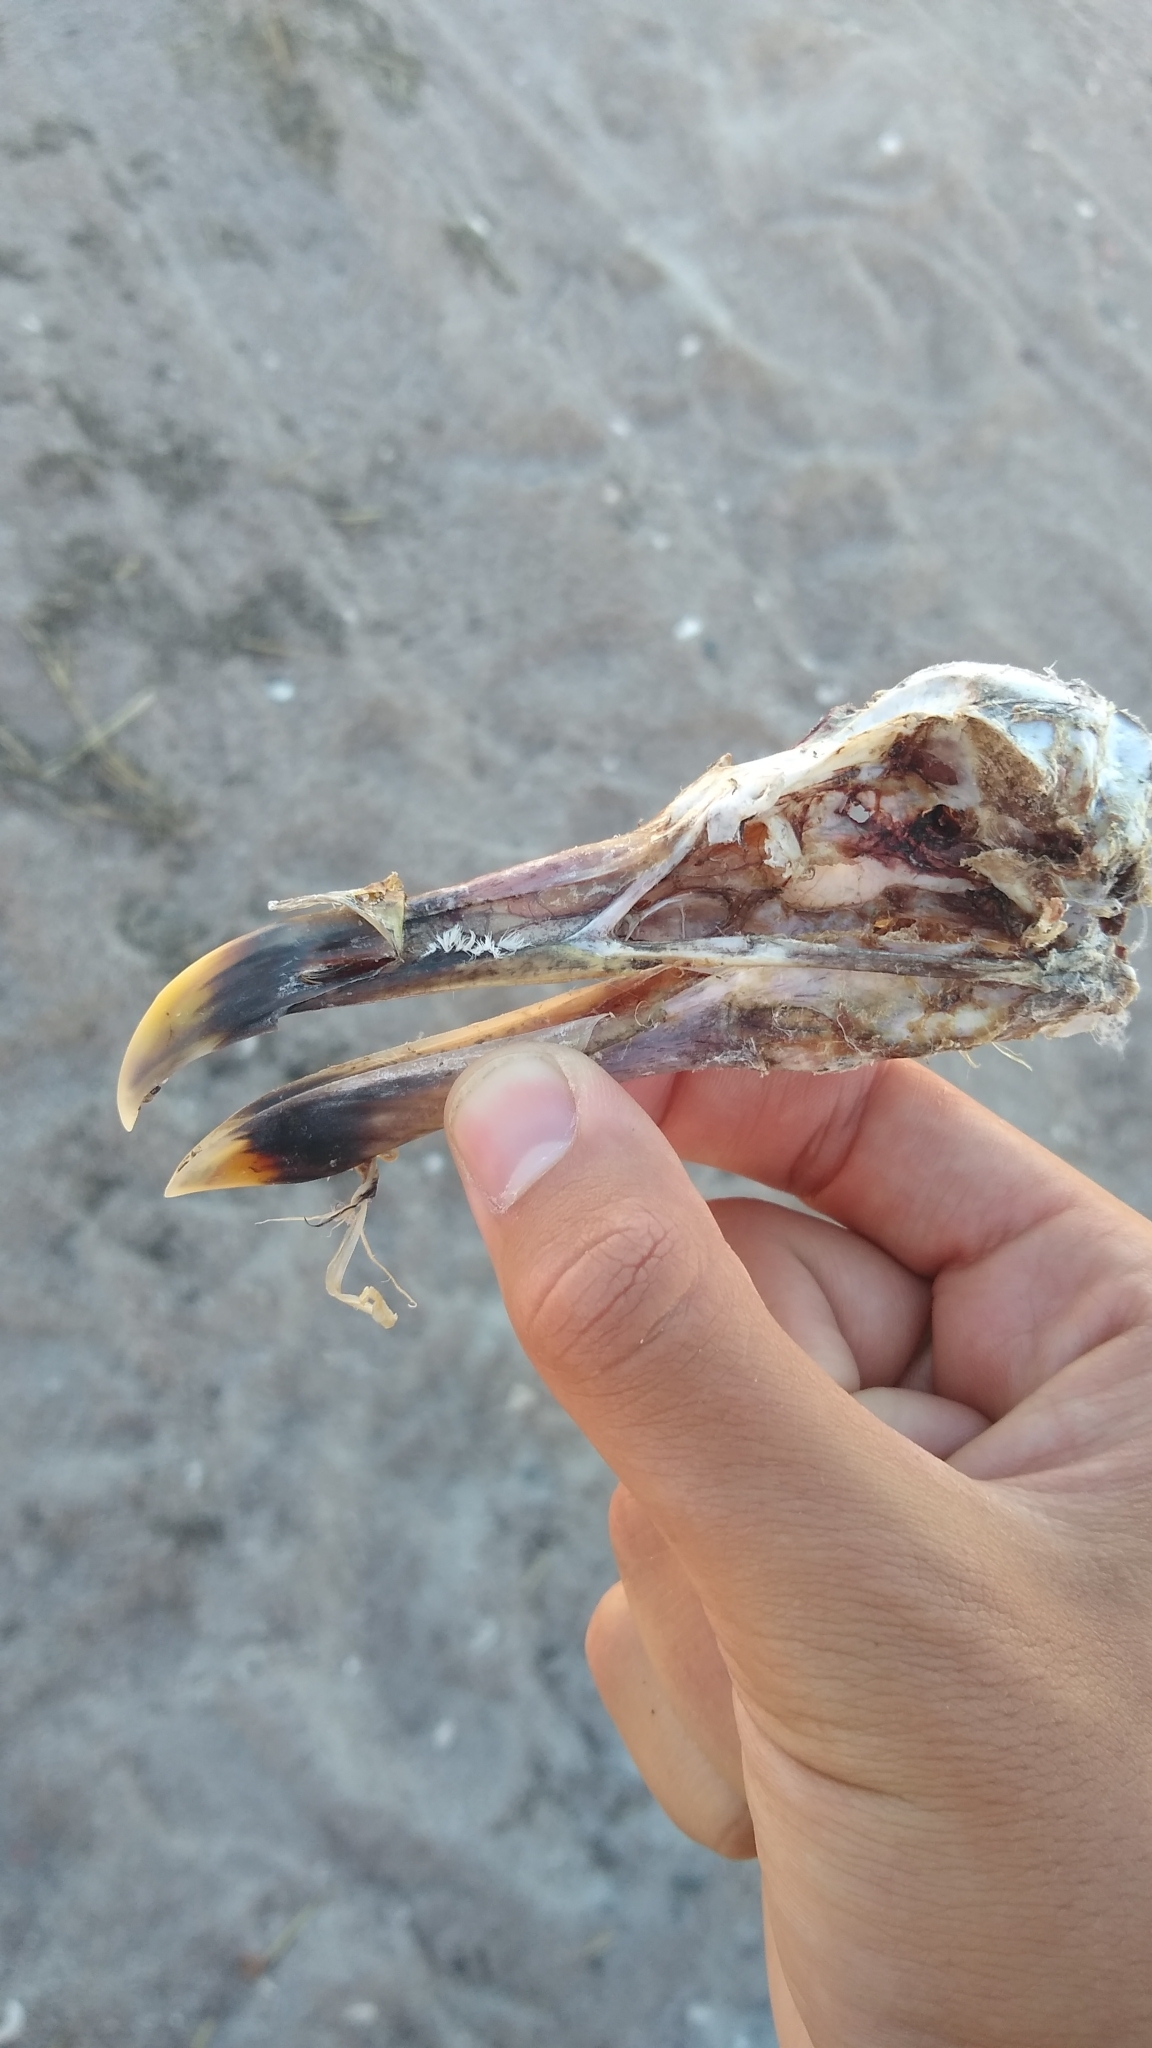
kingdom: Animalia
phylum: Chordata
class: Aves
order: Charadriiformes
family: Laridae
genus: Larus
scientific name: Larus dominicanus
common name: Kelp gull
